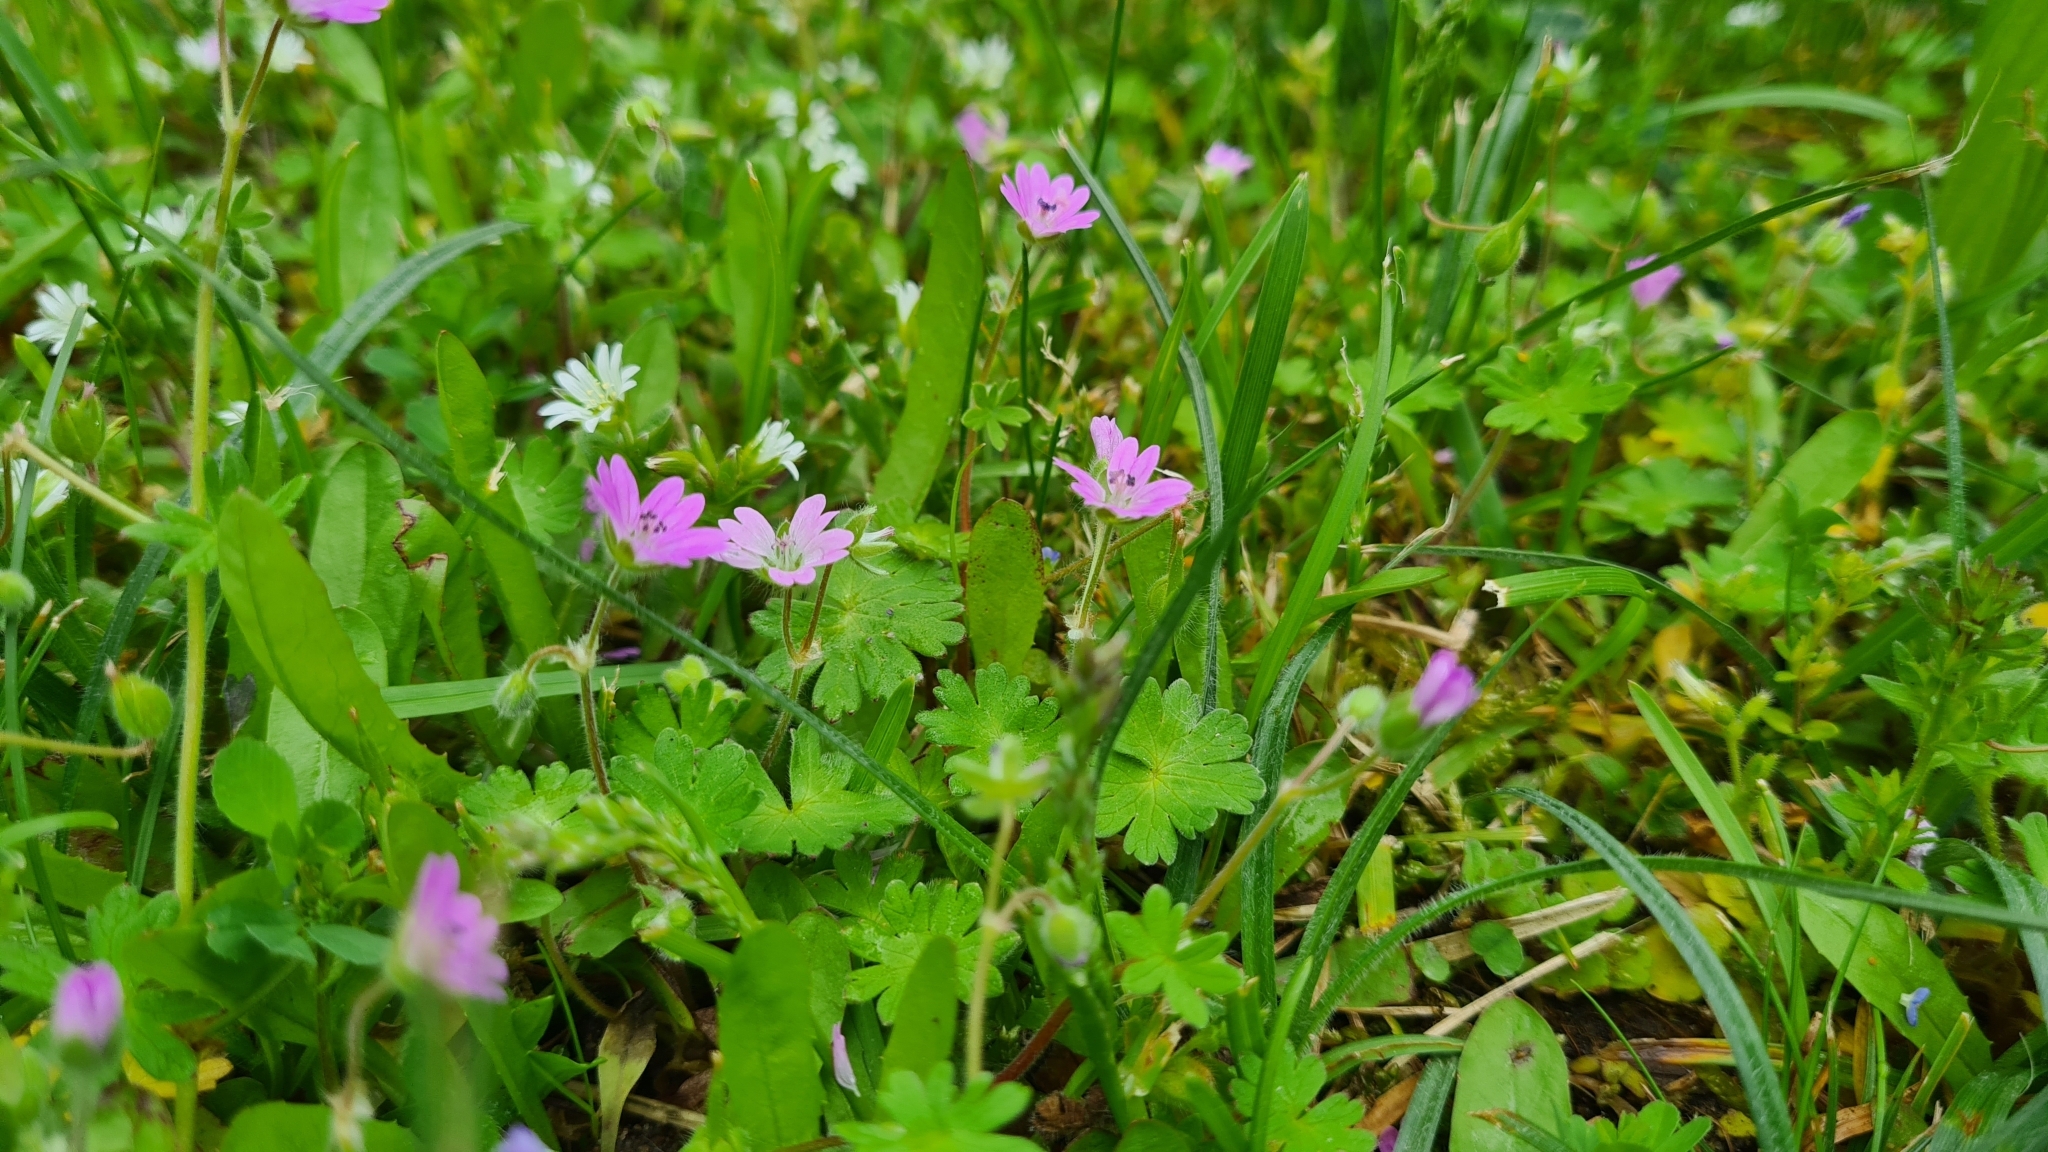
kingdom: Plantae
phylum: Tracheophyta
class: Magnoliopsida
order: Geraniales
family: Geraniaceae
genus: Geranium
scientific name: Geranium molle
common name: Dove's-foot crane's-bill
